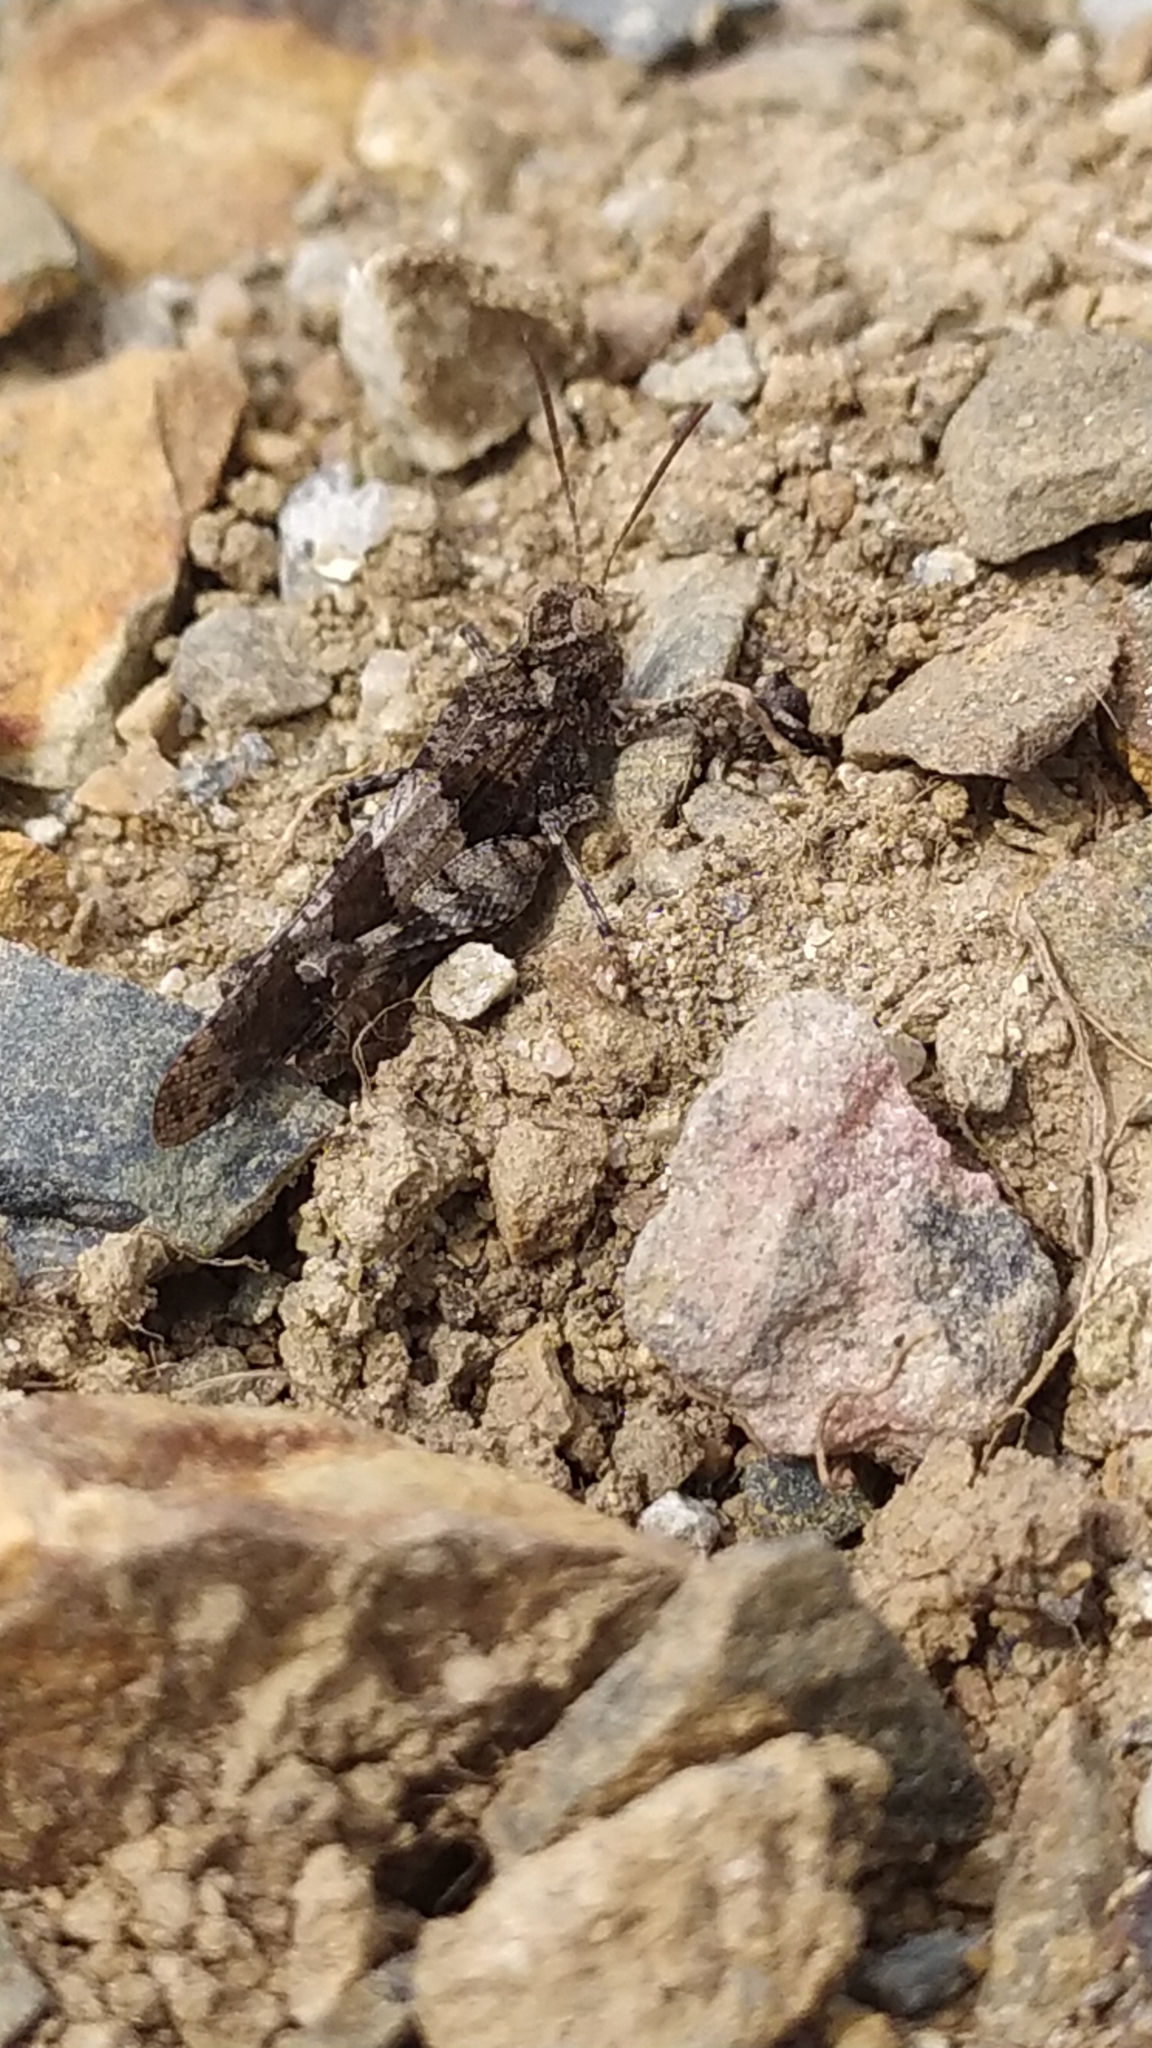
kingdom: Animalia
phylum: Arthropoda
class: Insecta
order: Orthoptera
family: Acrididae
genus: Oedipoda
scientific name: Oedipoda caerulescens
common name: Blue-winged grasshopper
